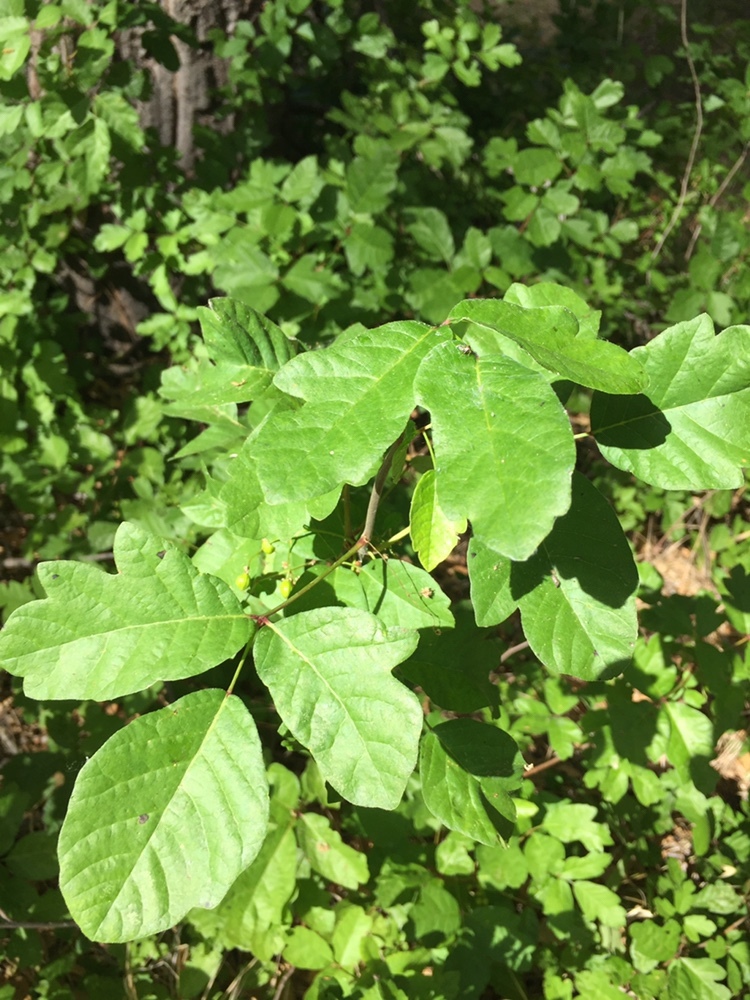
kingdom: Plantae
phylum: Tracheophyta
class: Magnoliopsida
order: Sapindales
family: Anacardiaceae
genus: Toxicodendron
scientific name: Toxicodendron diversilobum
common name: Pacific poison-oak
